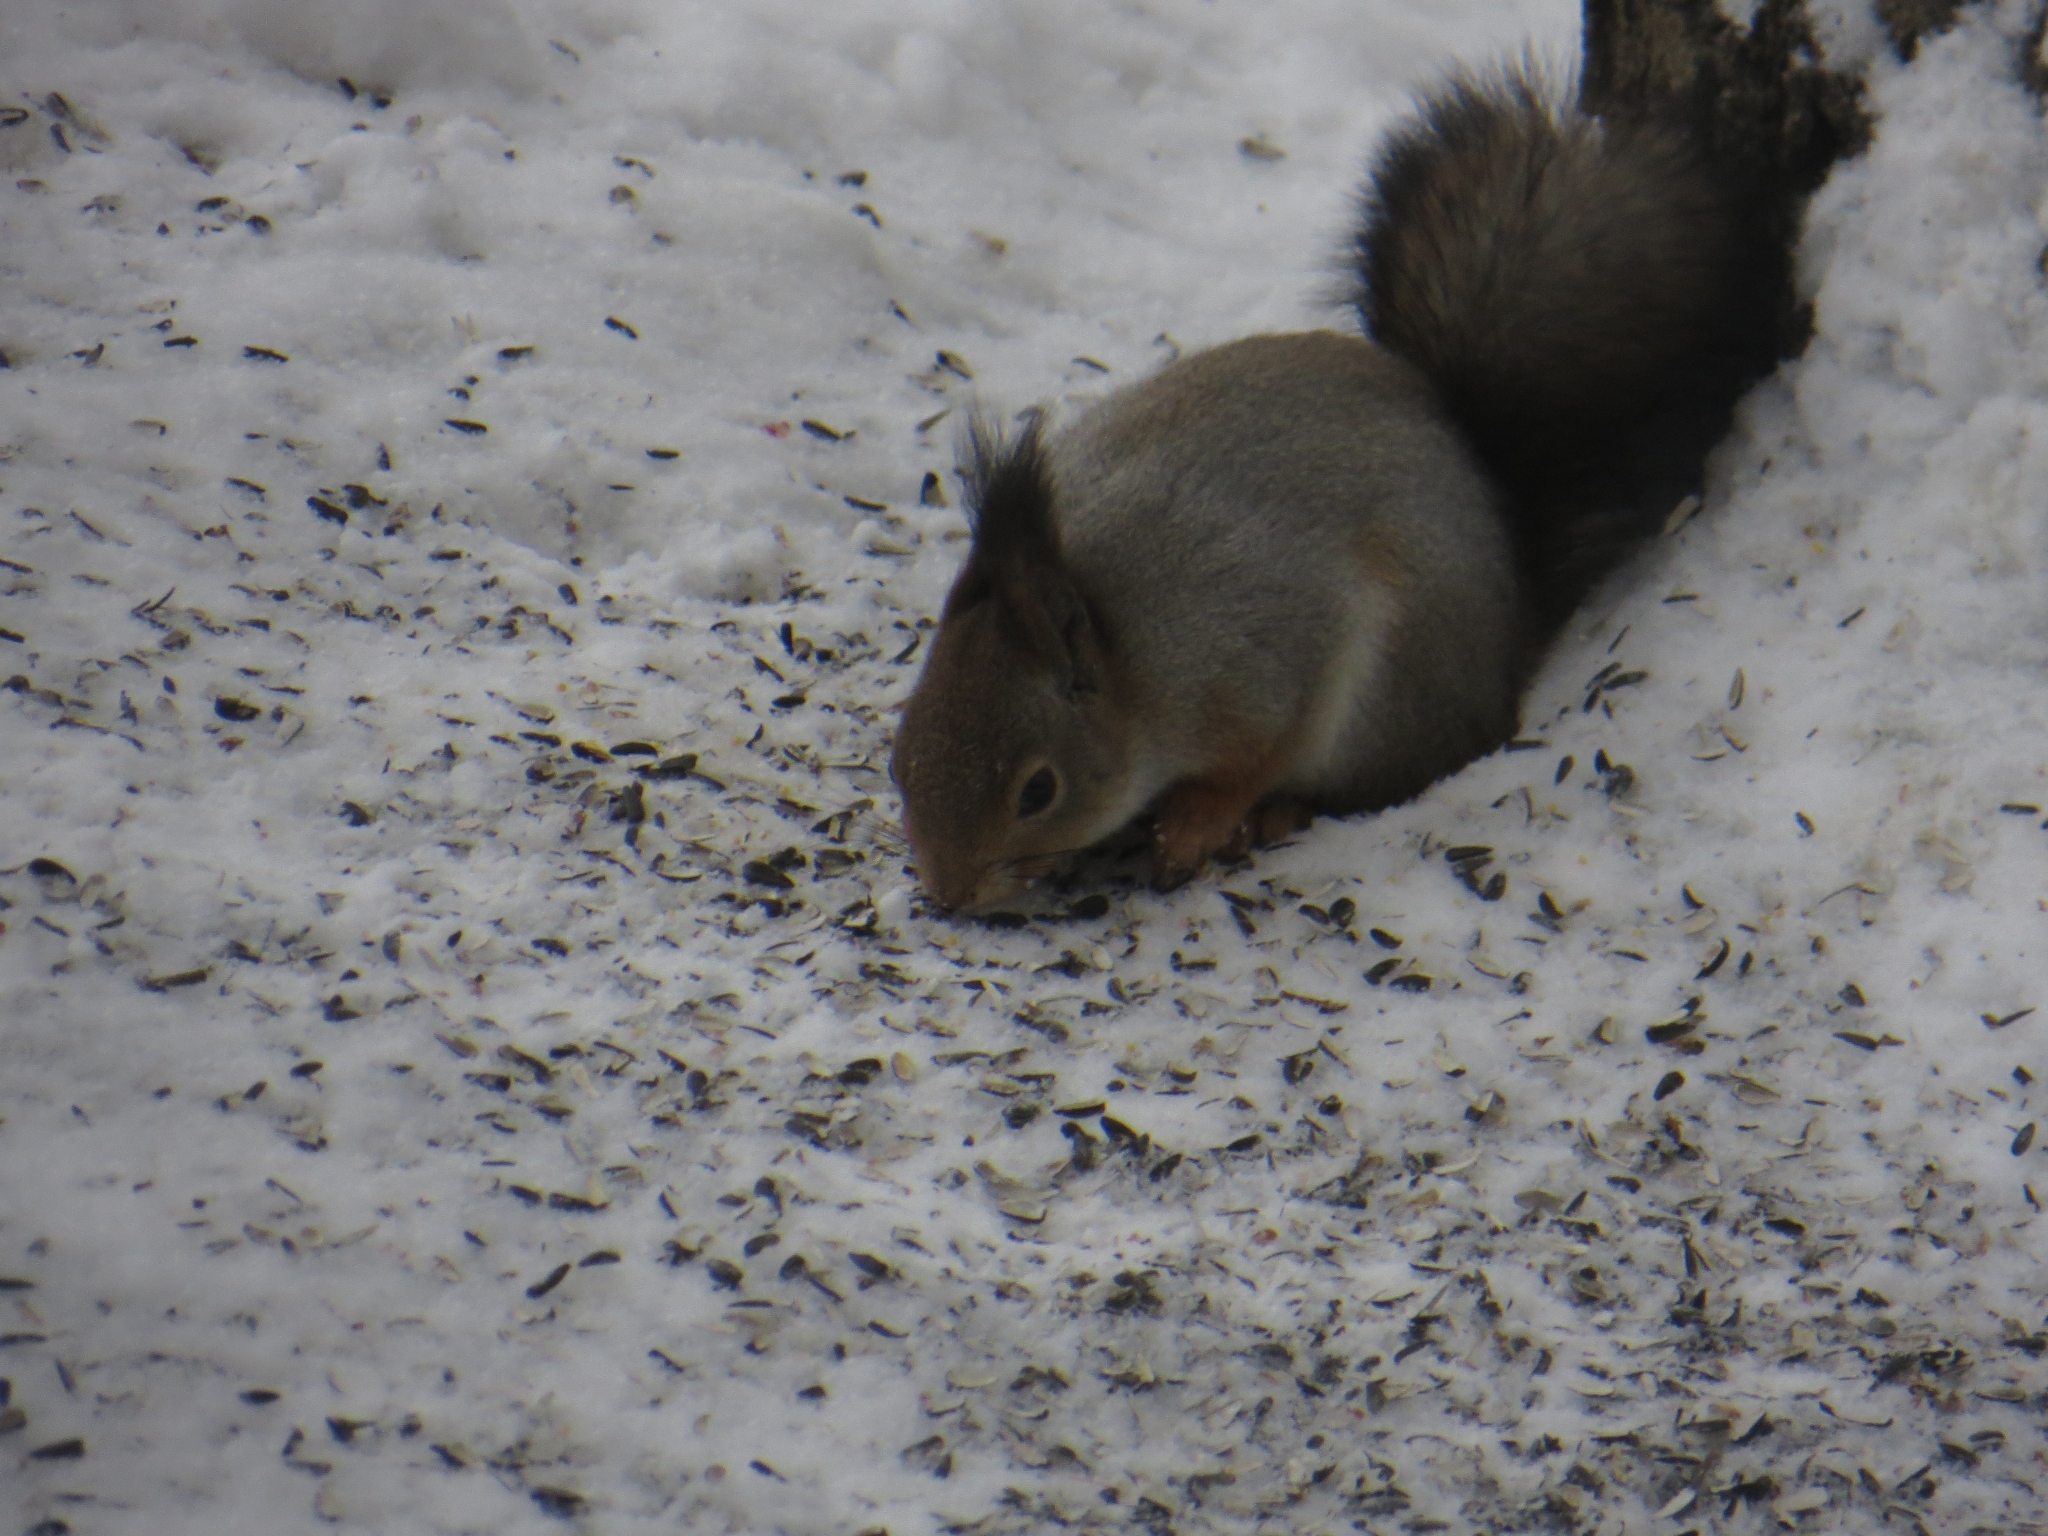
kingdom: Animalia
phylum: Chordata
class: Mammalia
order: Rodentia
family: Sciuridae
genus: Sciurus
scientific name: Sciurus vulgaris
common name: Eurasian red squirrel
